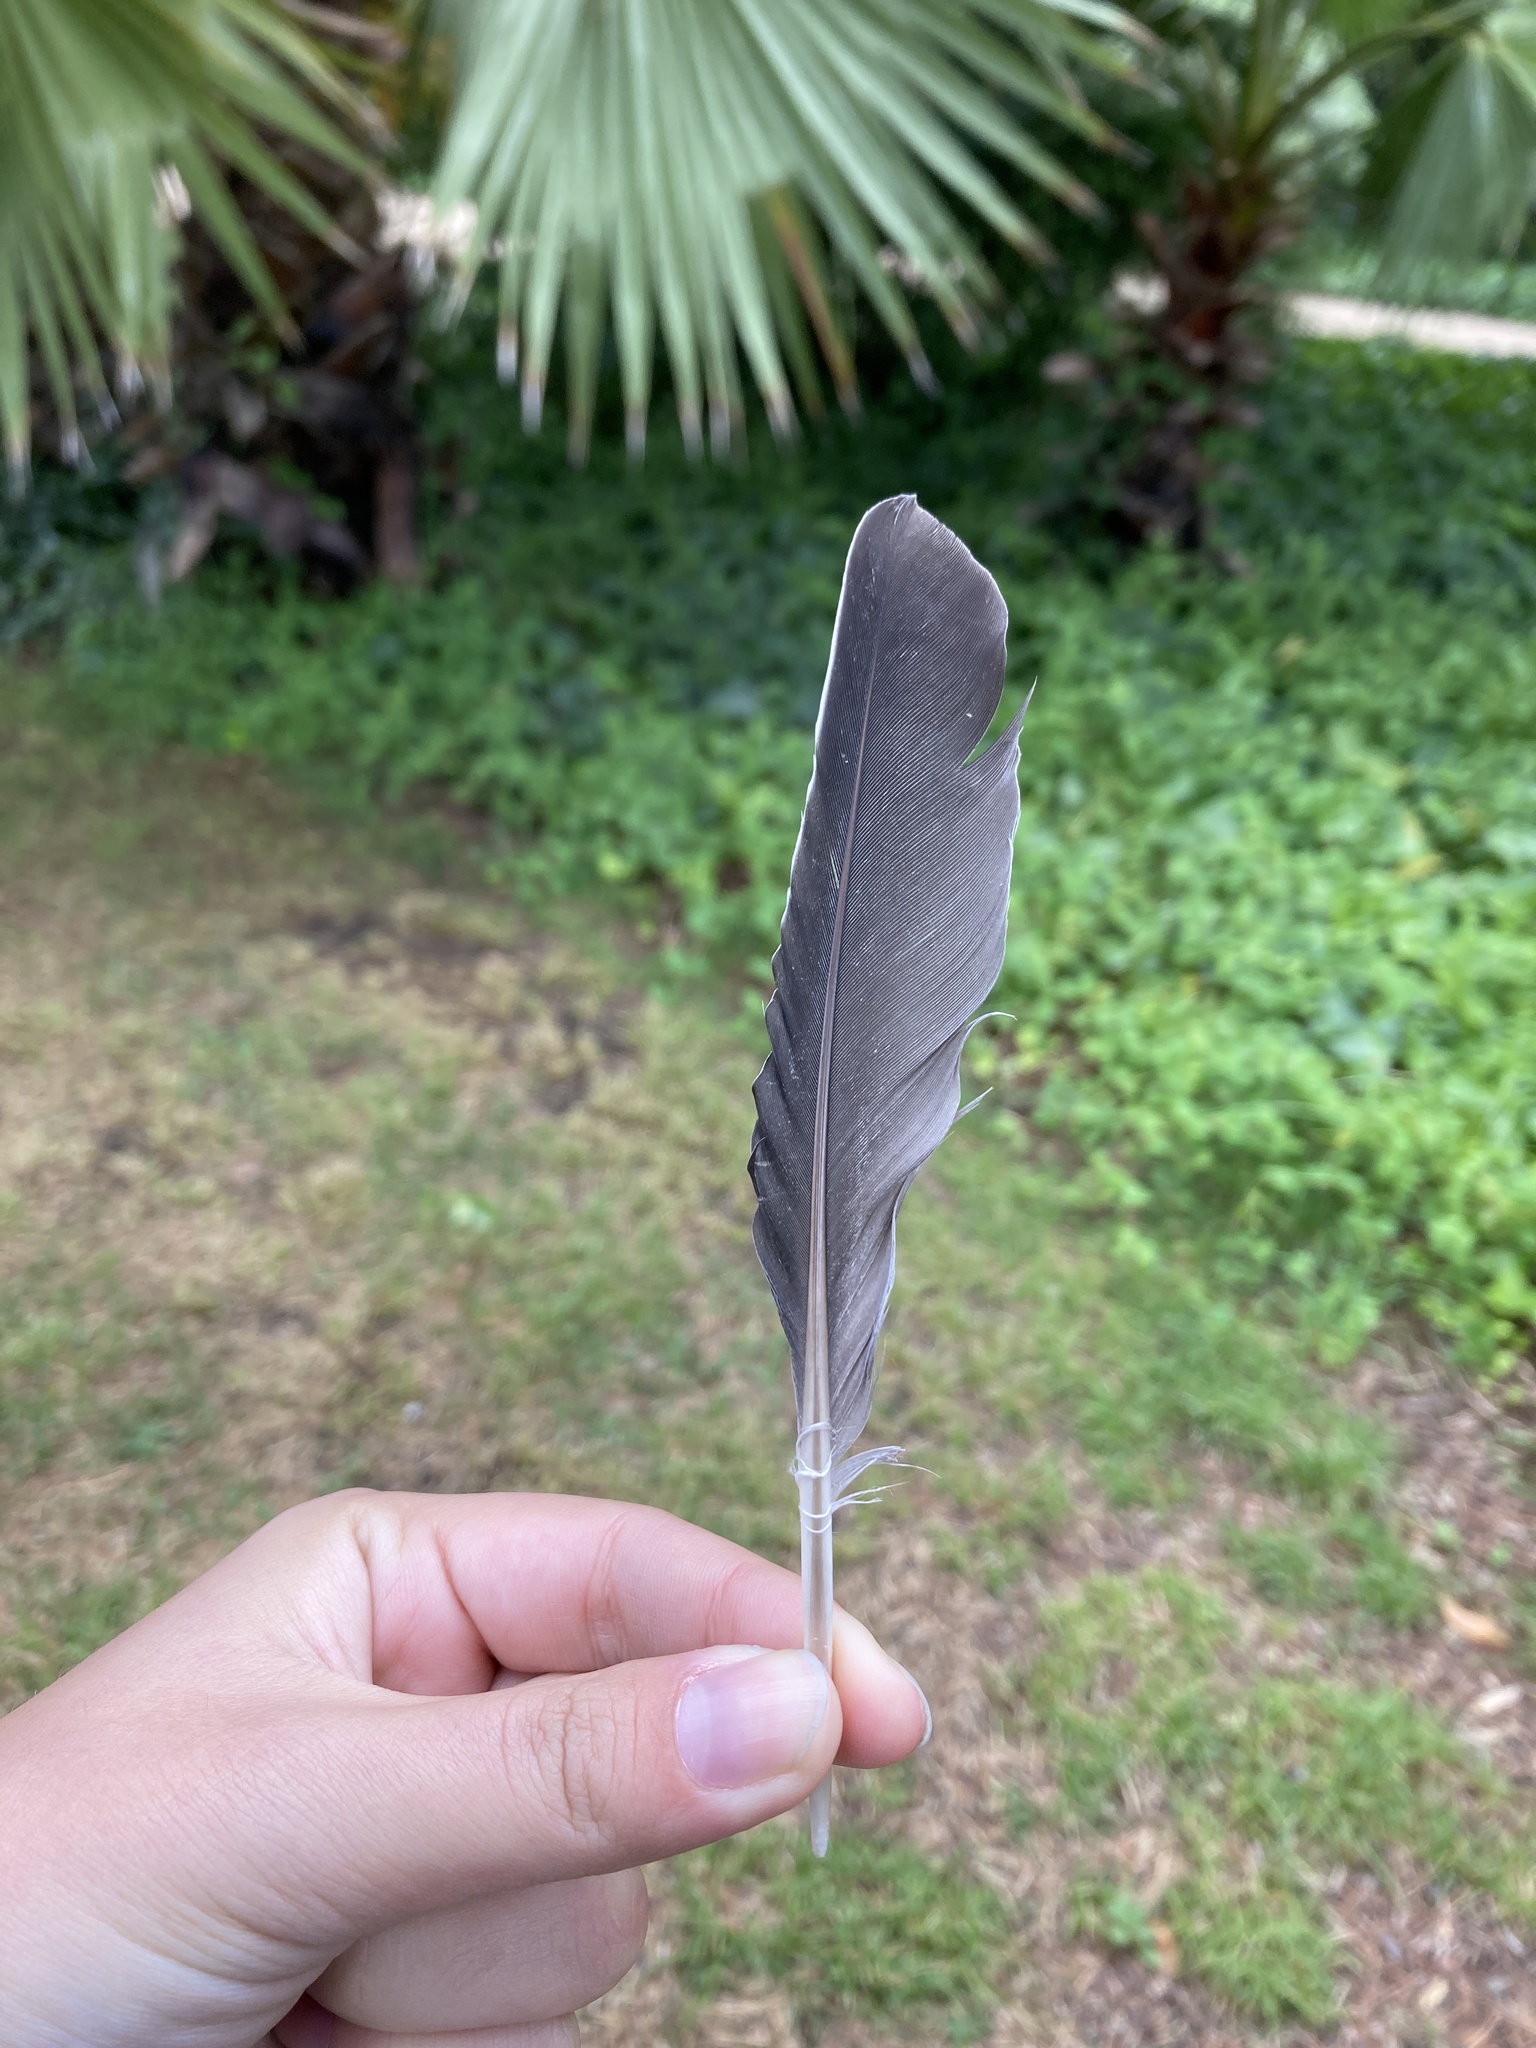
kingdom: Animalia
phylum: Chordata
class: Aves
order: Columbiformes
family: Columbidae
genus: Columba
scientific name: Columba palumbus
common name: Common wood pigeon
